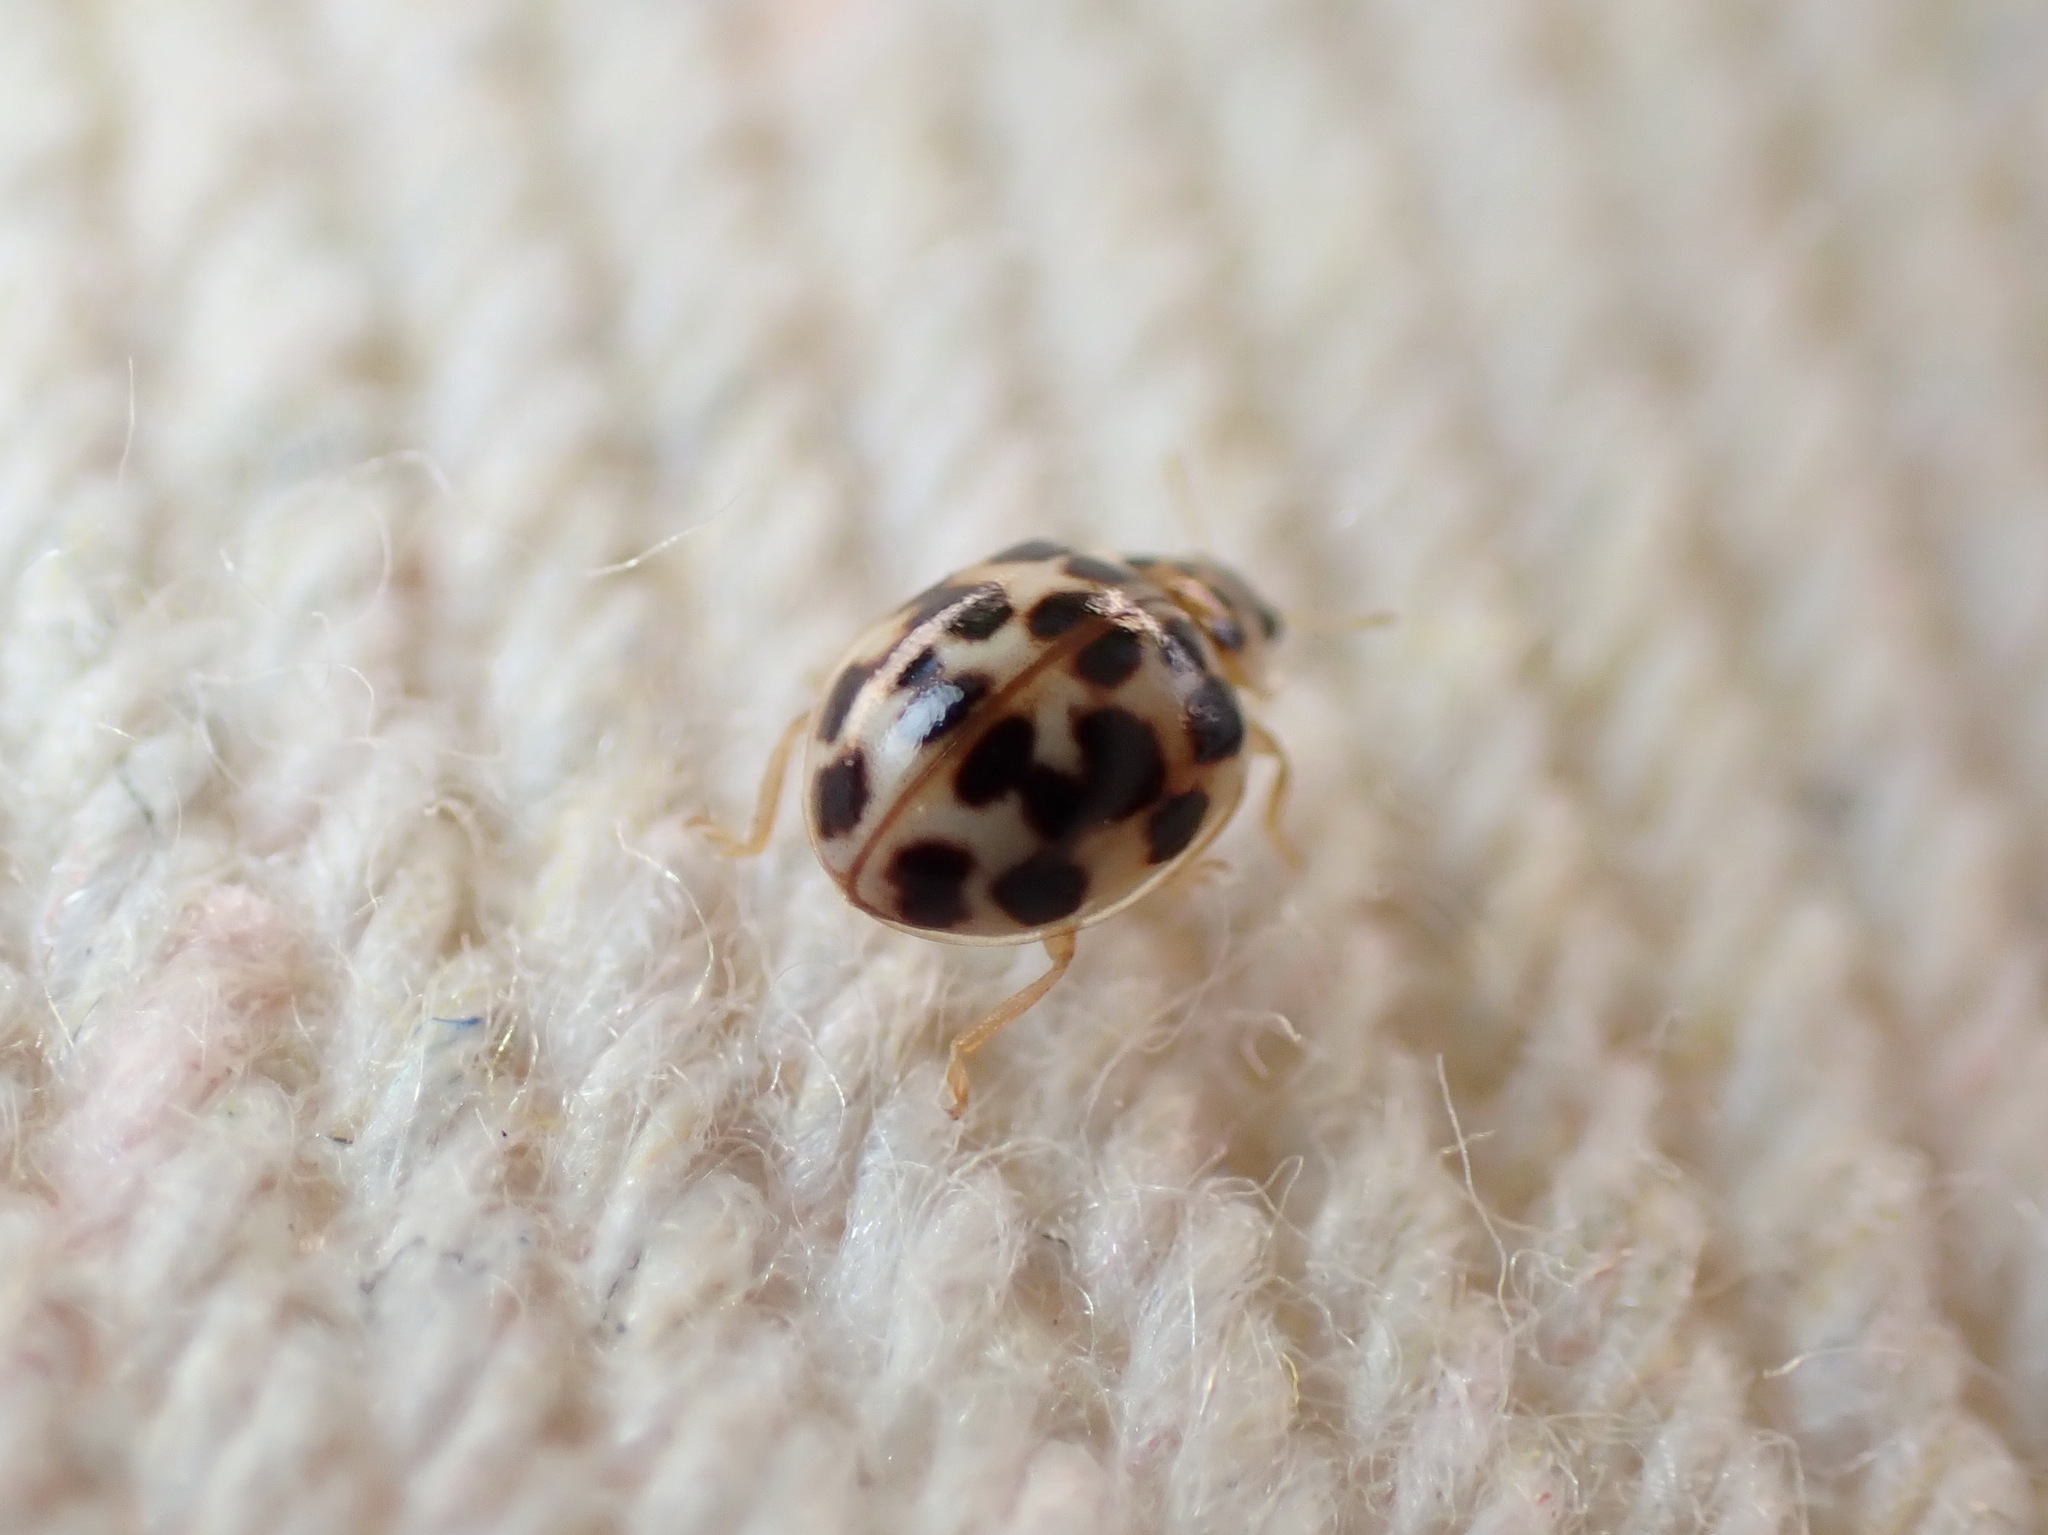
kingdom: Animalia
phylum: Arthropoda
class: Insecta
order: Coleoptera
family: Coccinellidae
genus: Psyllobora
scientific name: Psyllobora vigintimaculata
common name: Ladybird beetle
